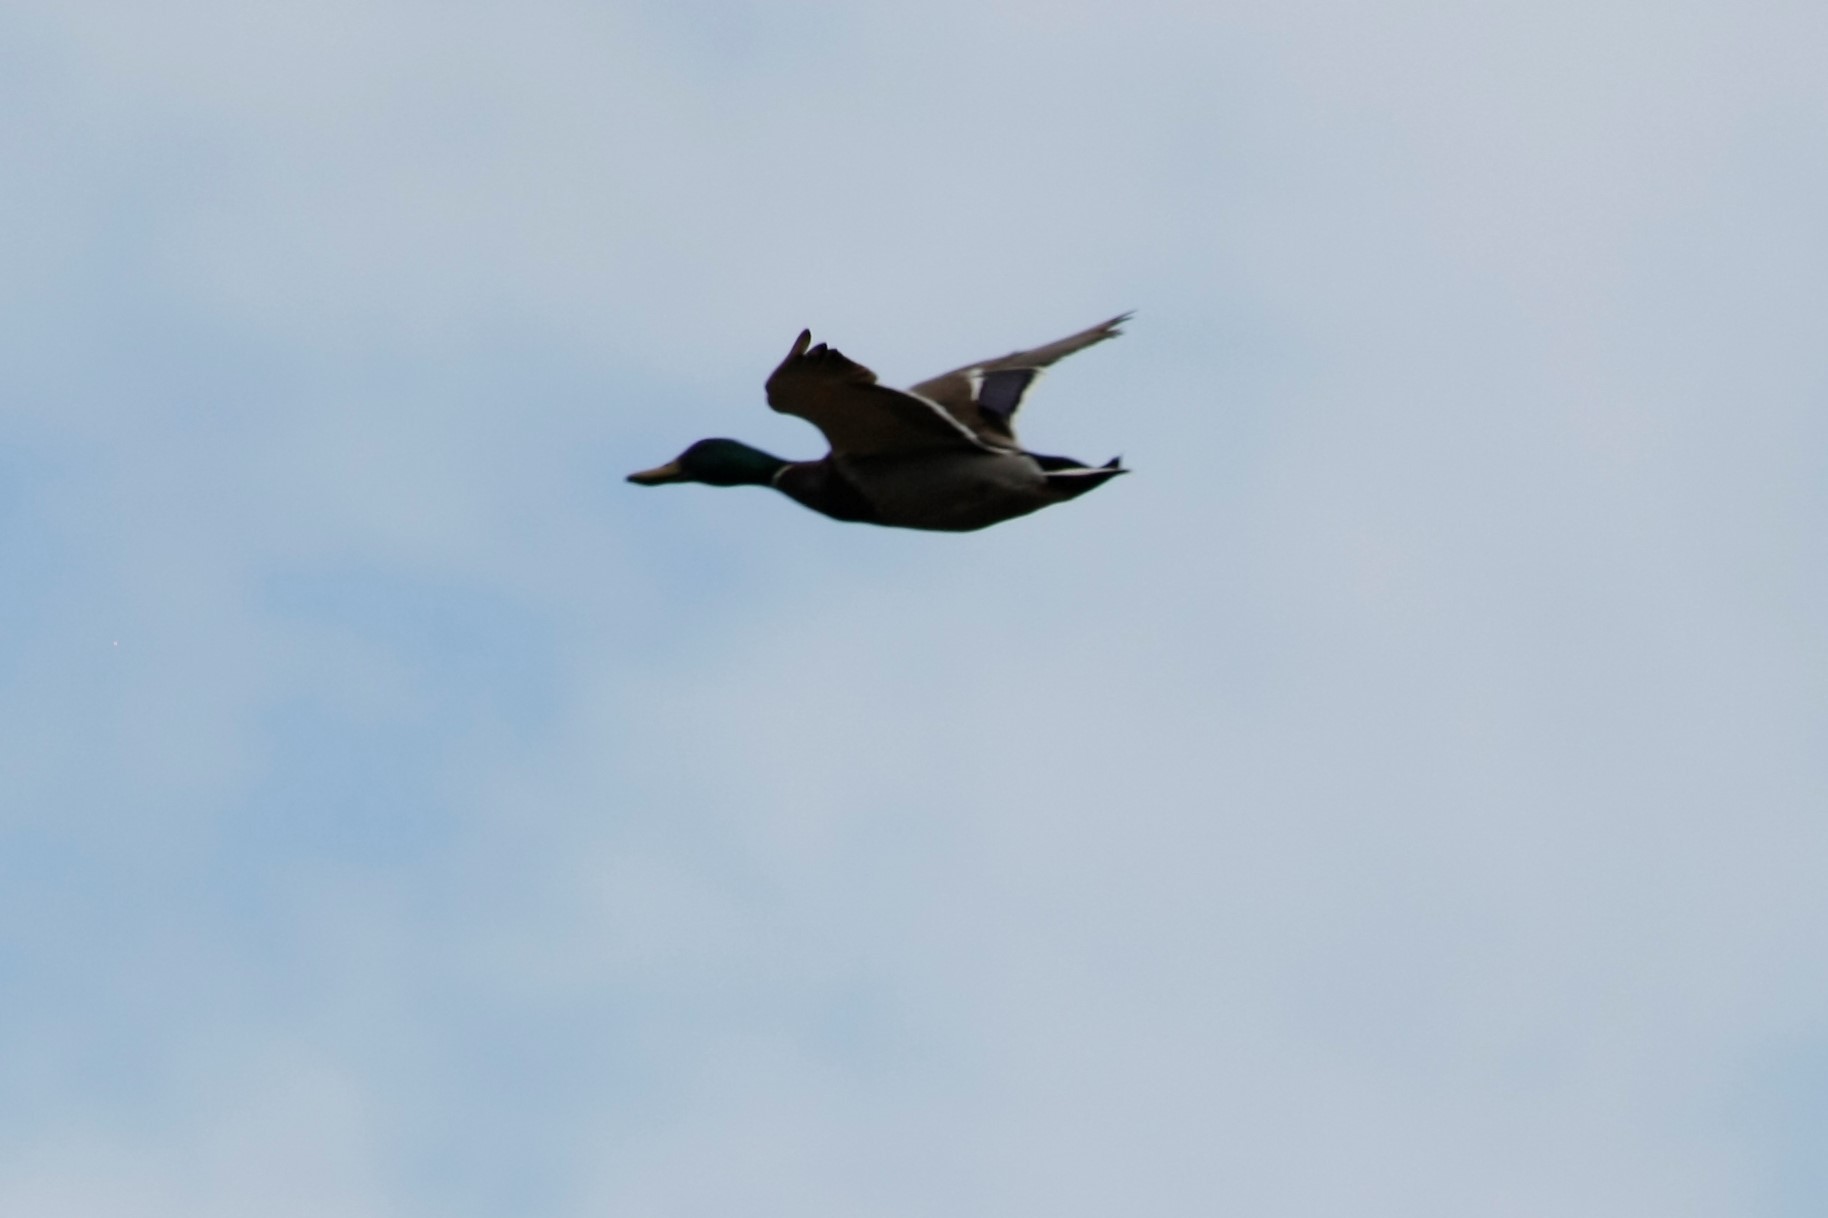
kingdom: Animalia
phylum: Chordata
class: Aves
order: Anseriformes
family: Anatidae
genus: Anas
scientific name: Anas platyrhynchos
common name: Mallard
